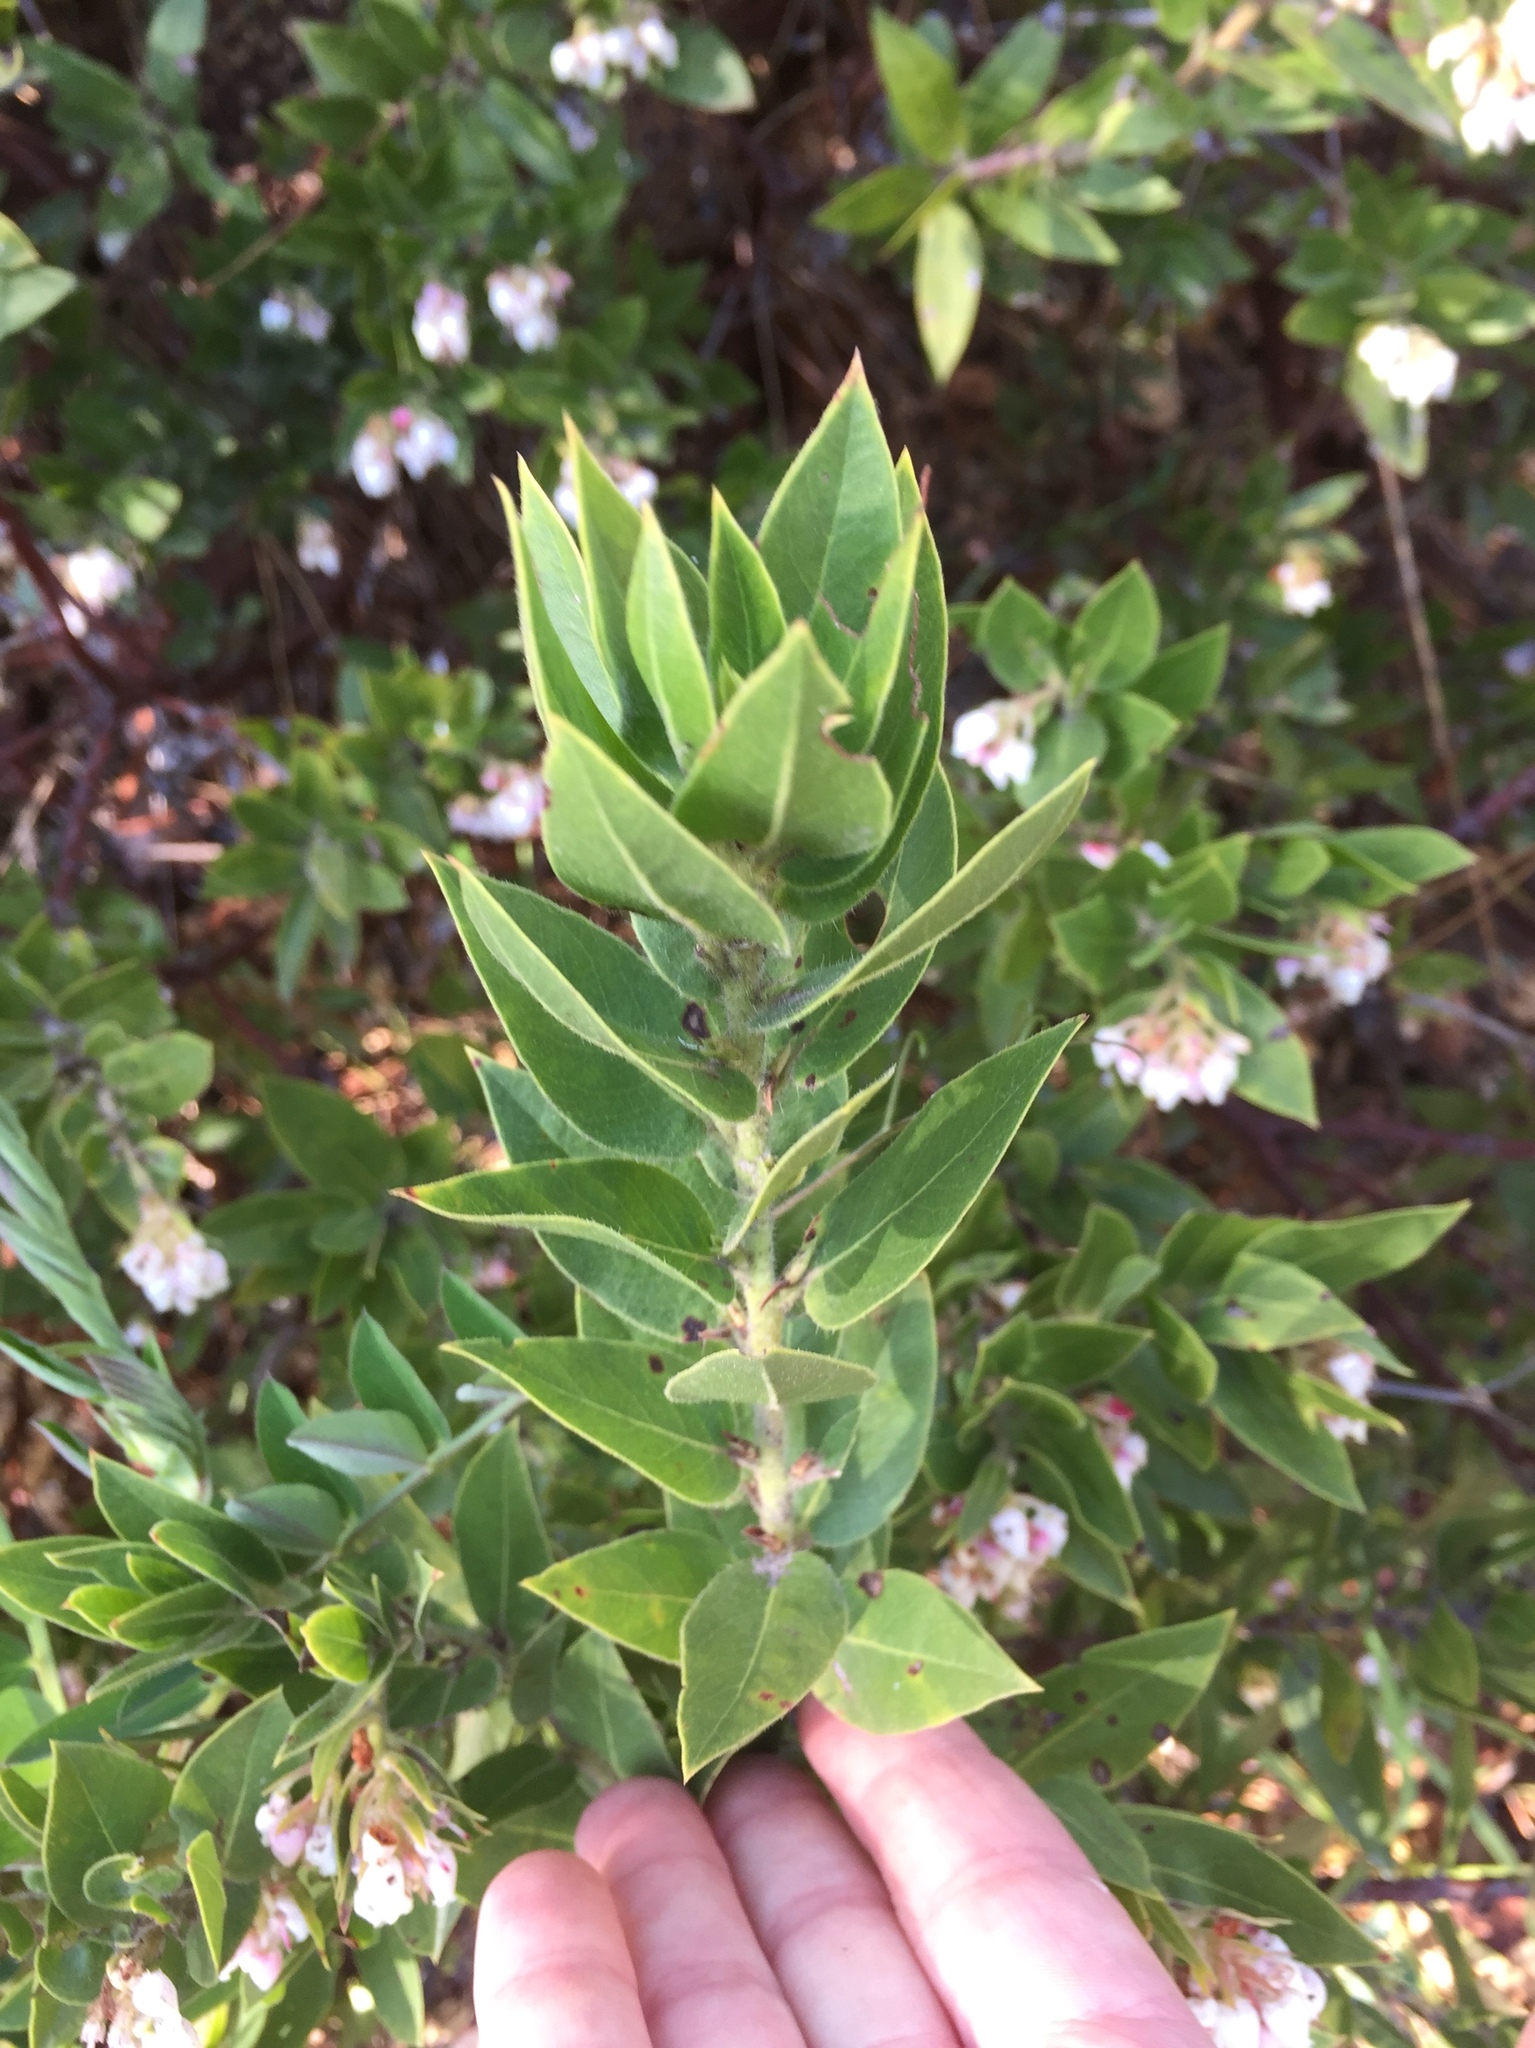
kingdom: Plantae
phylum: Tracheophyta
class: Magnoliopsida
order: Ericales
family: Ericaceae
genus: Arctostaphylos
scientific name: Arctostaphylos virgata
